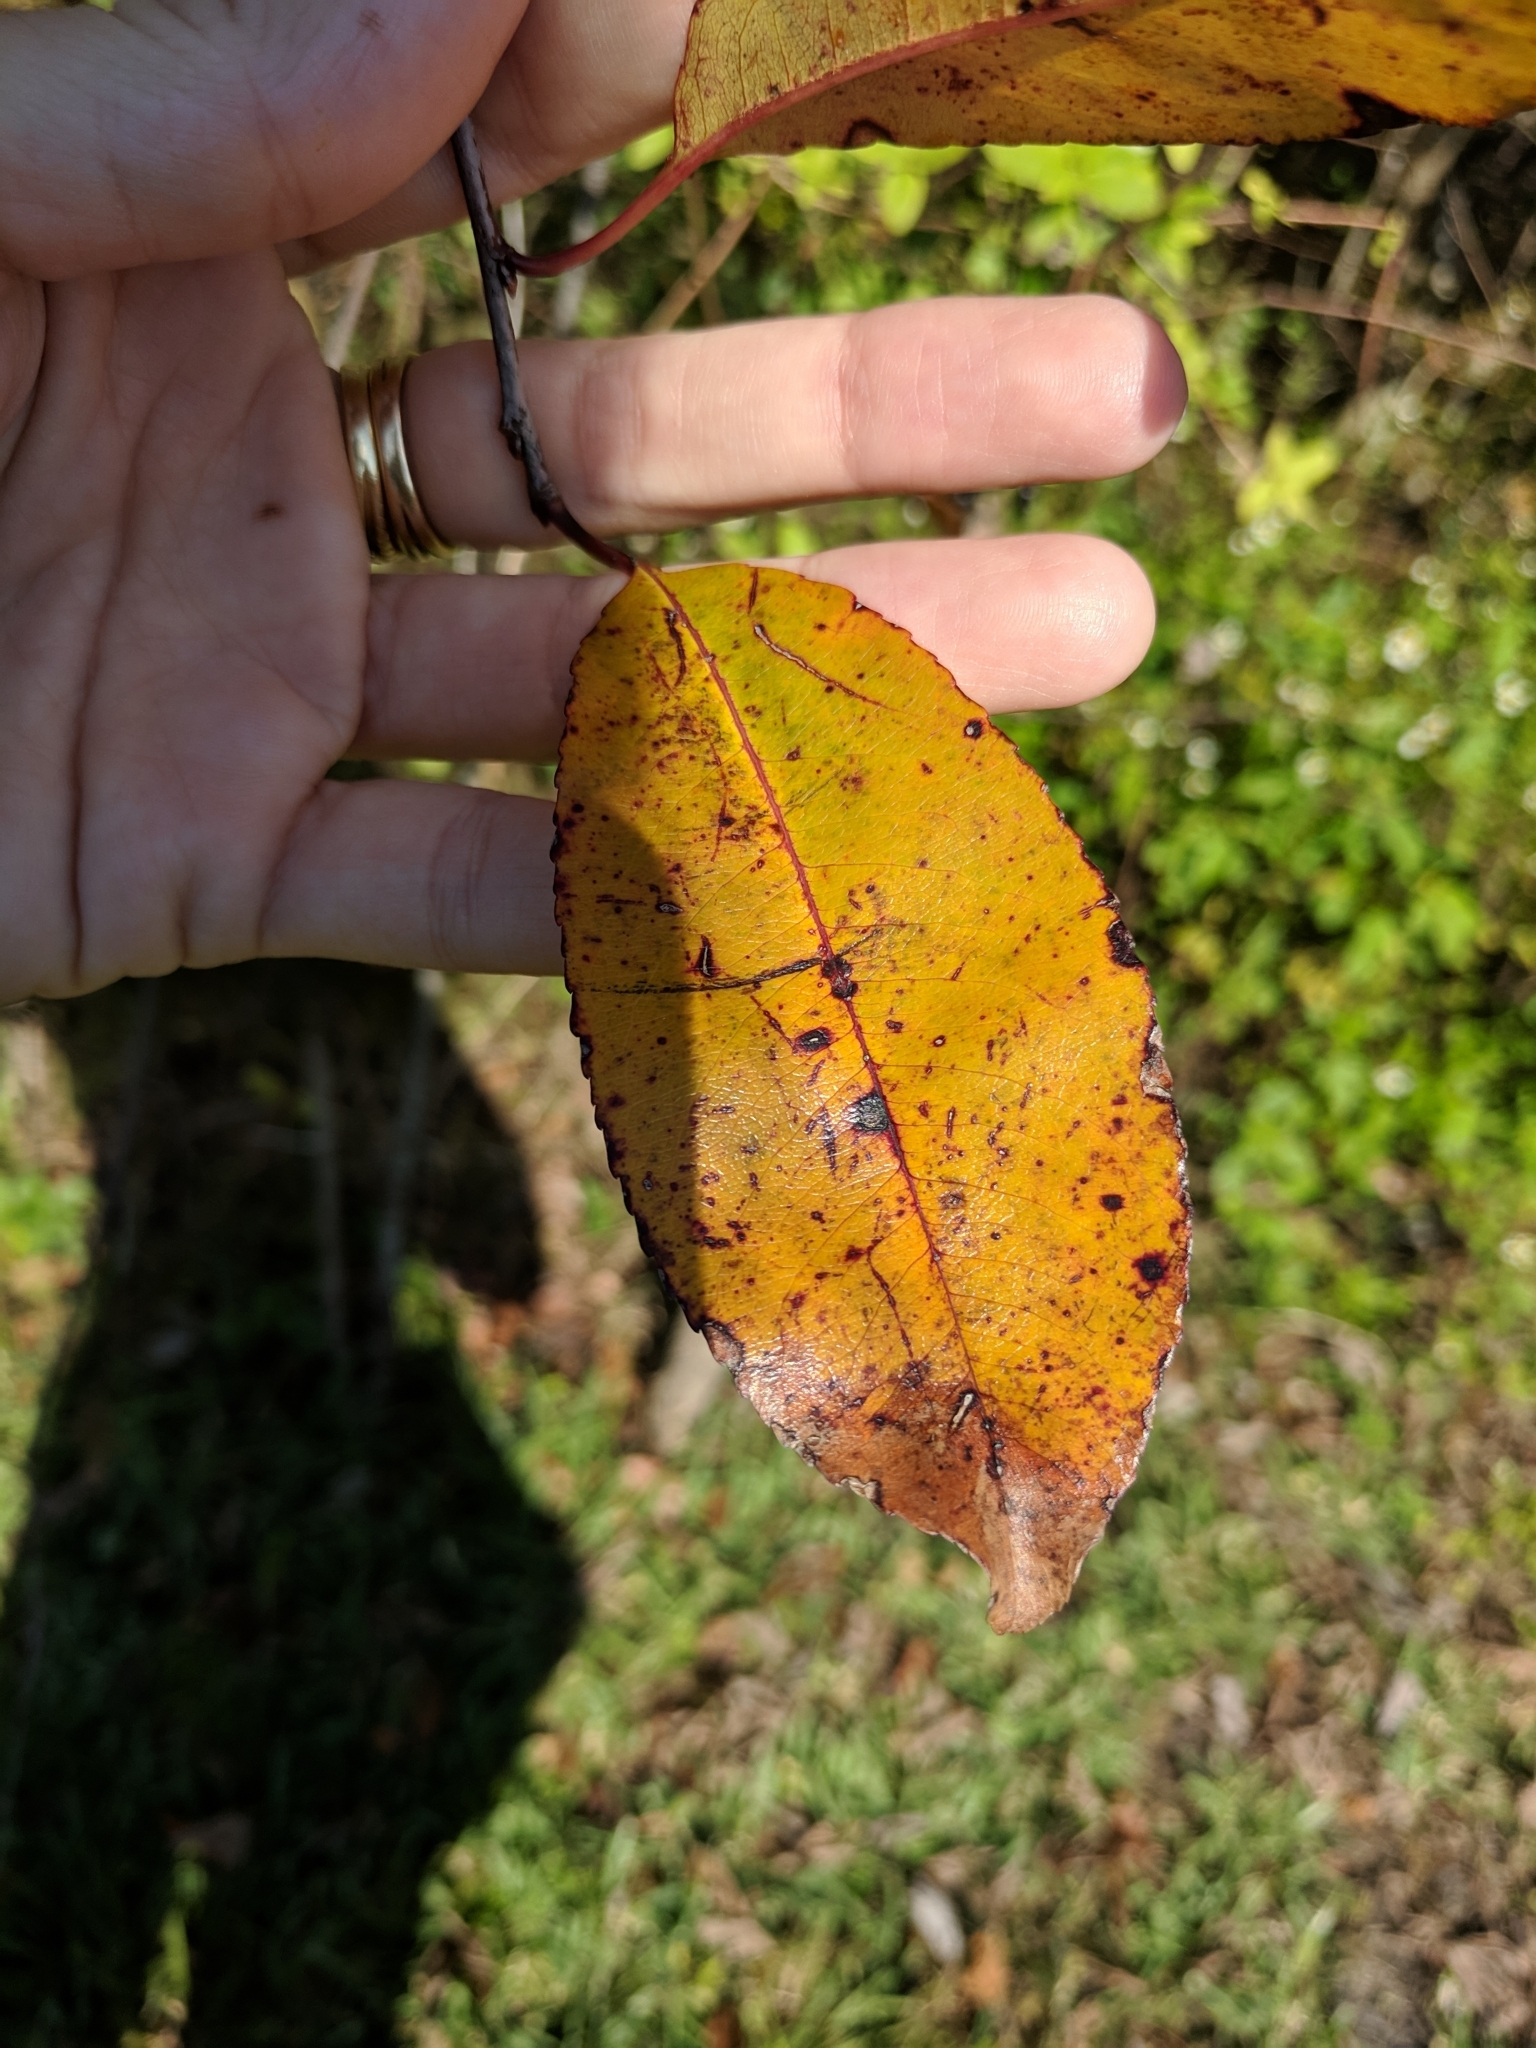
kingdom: Plantae
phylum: Tracheophyta
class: Magnoliopsida
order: Rosales
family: Rosaceae
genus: Prunus
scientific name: Prunus serotina
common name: Black cherry
